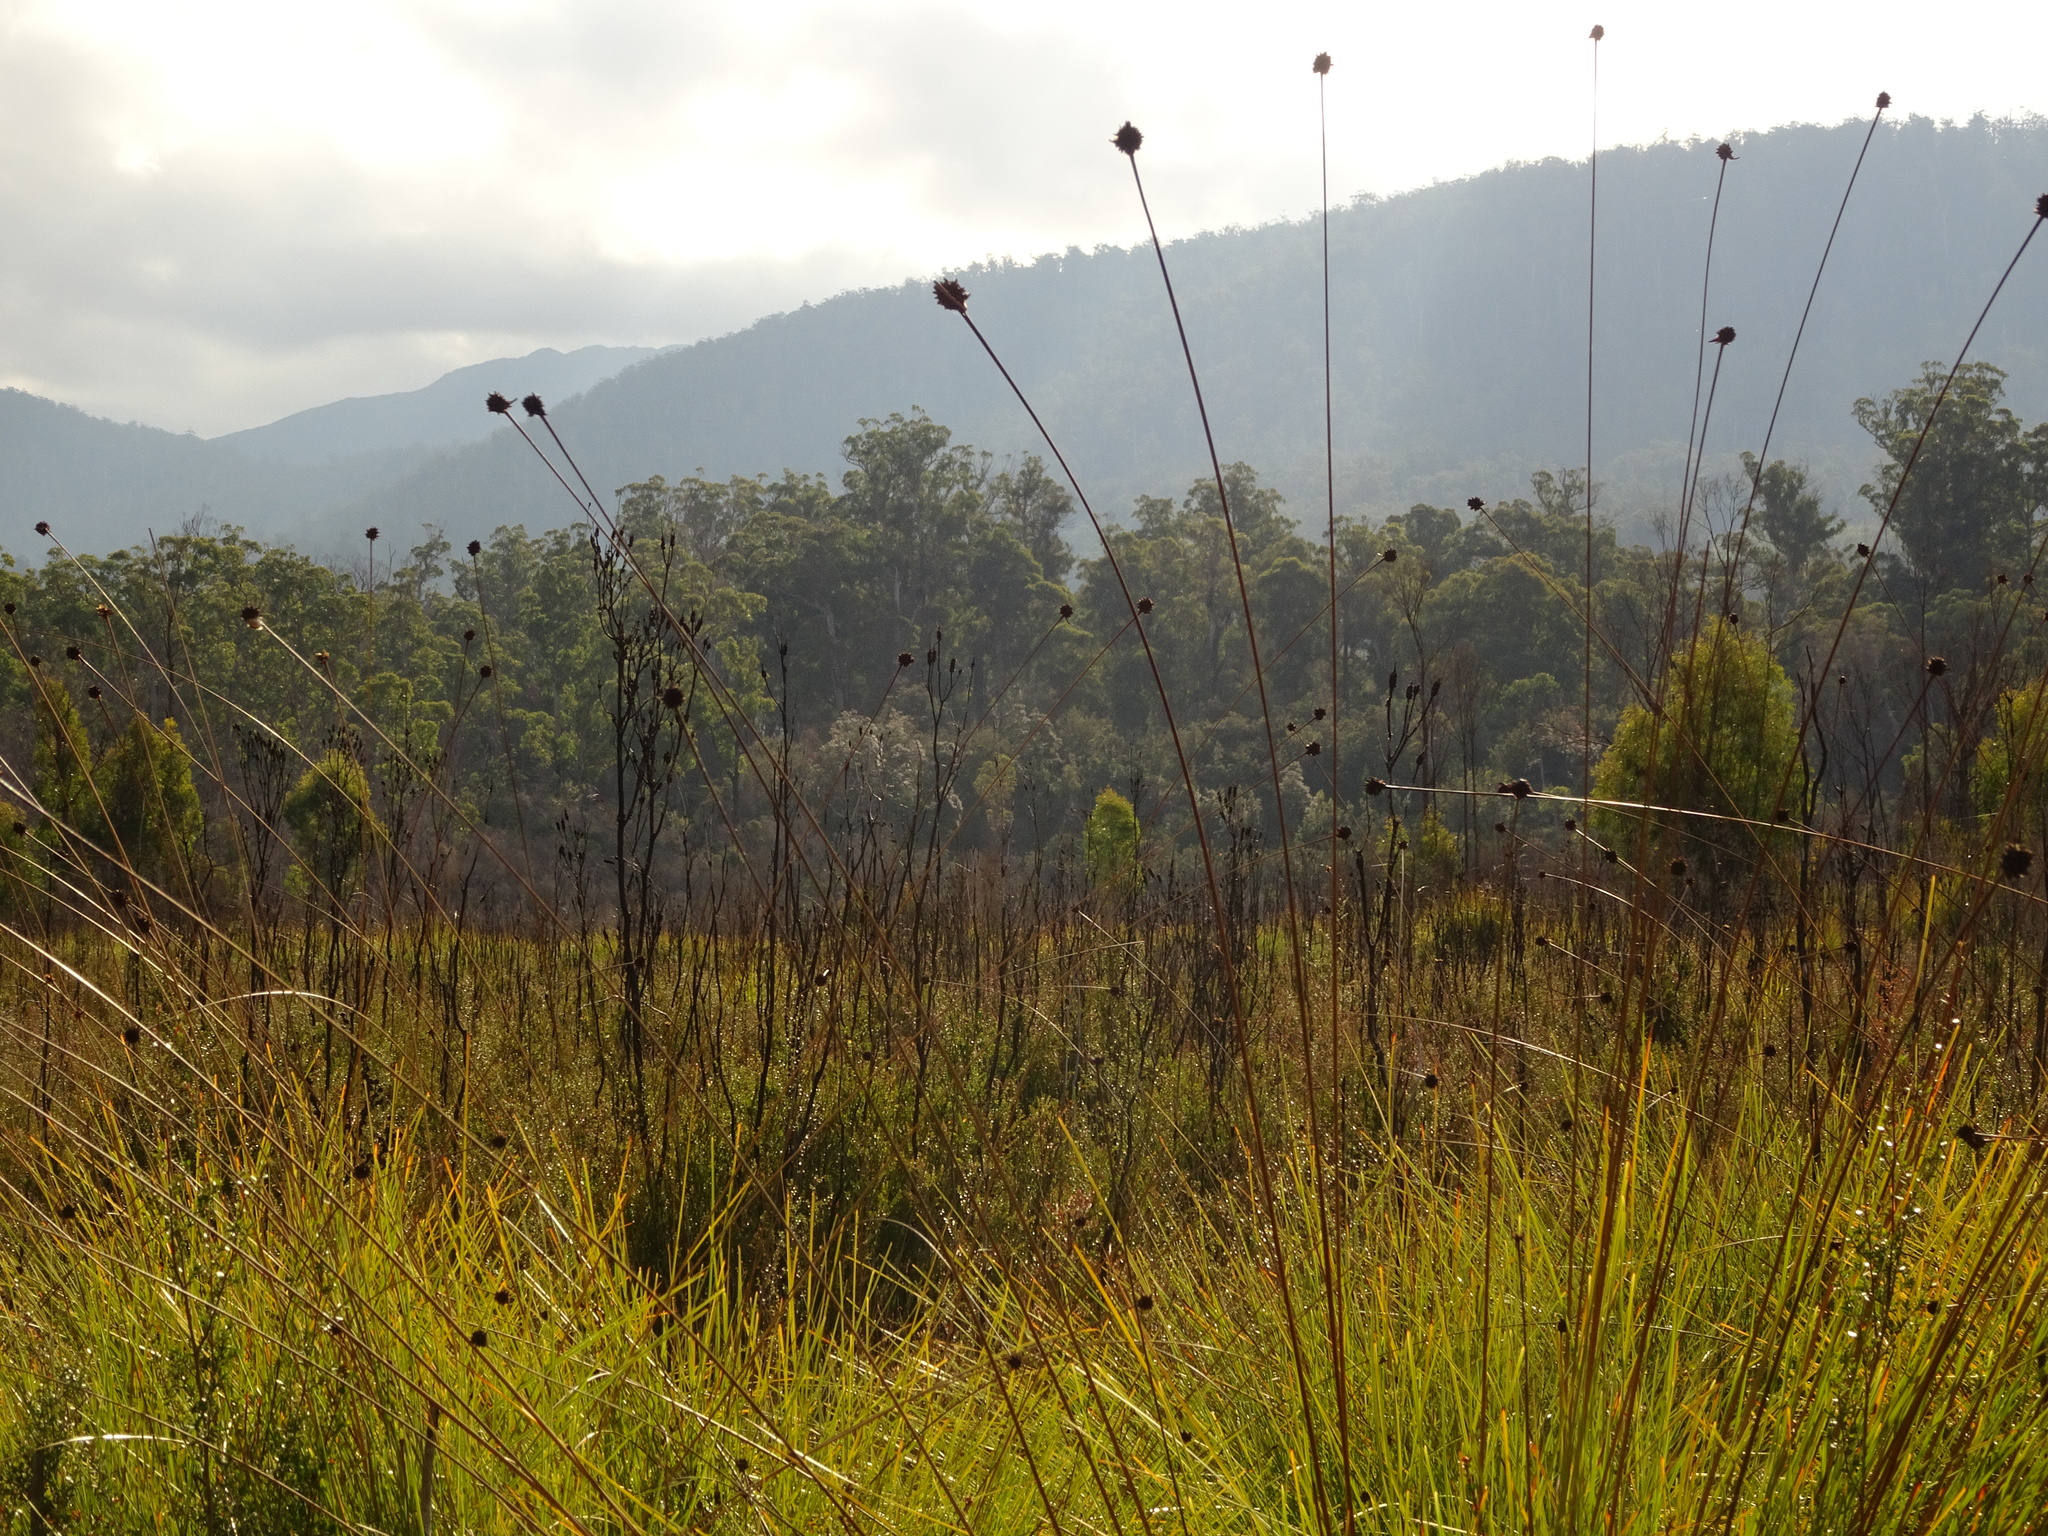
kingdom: Plantae
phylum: Tracheophyta
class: Liliopsida
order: Poales
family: Cyperaceae
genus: Gymnoschoenus
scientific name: Gymnoschoenus sphaerocephalus
